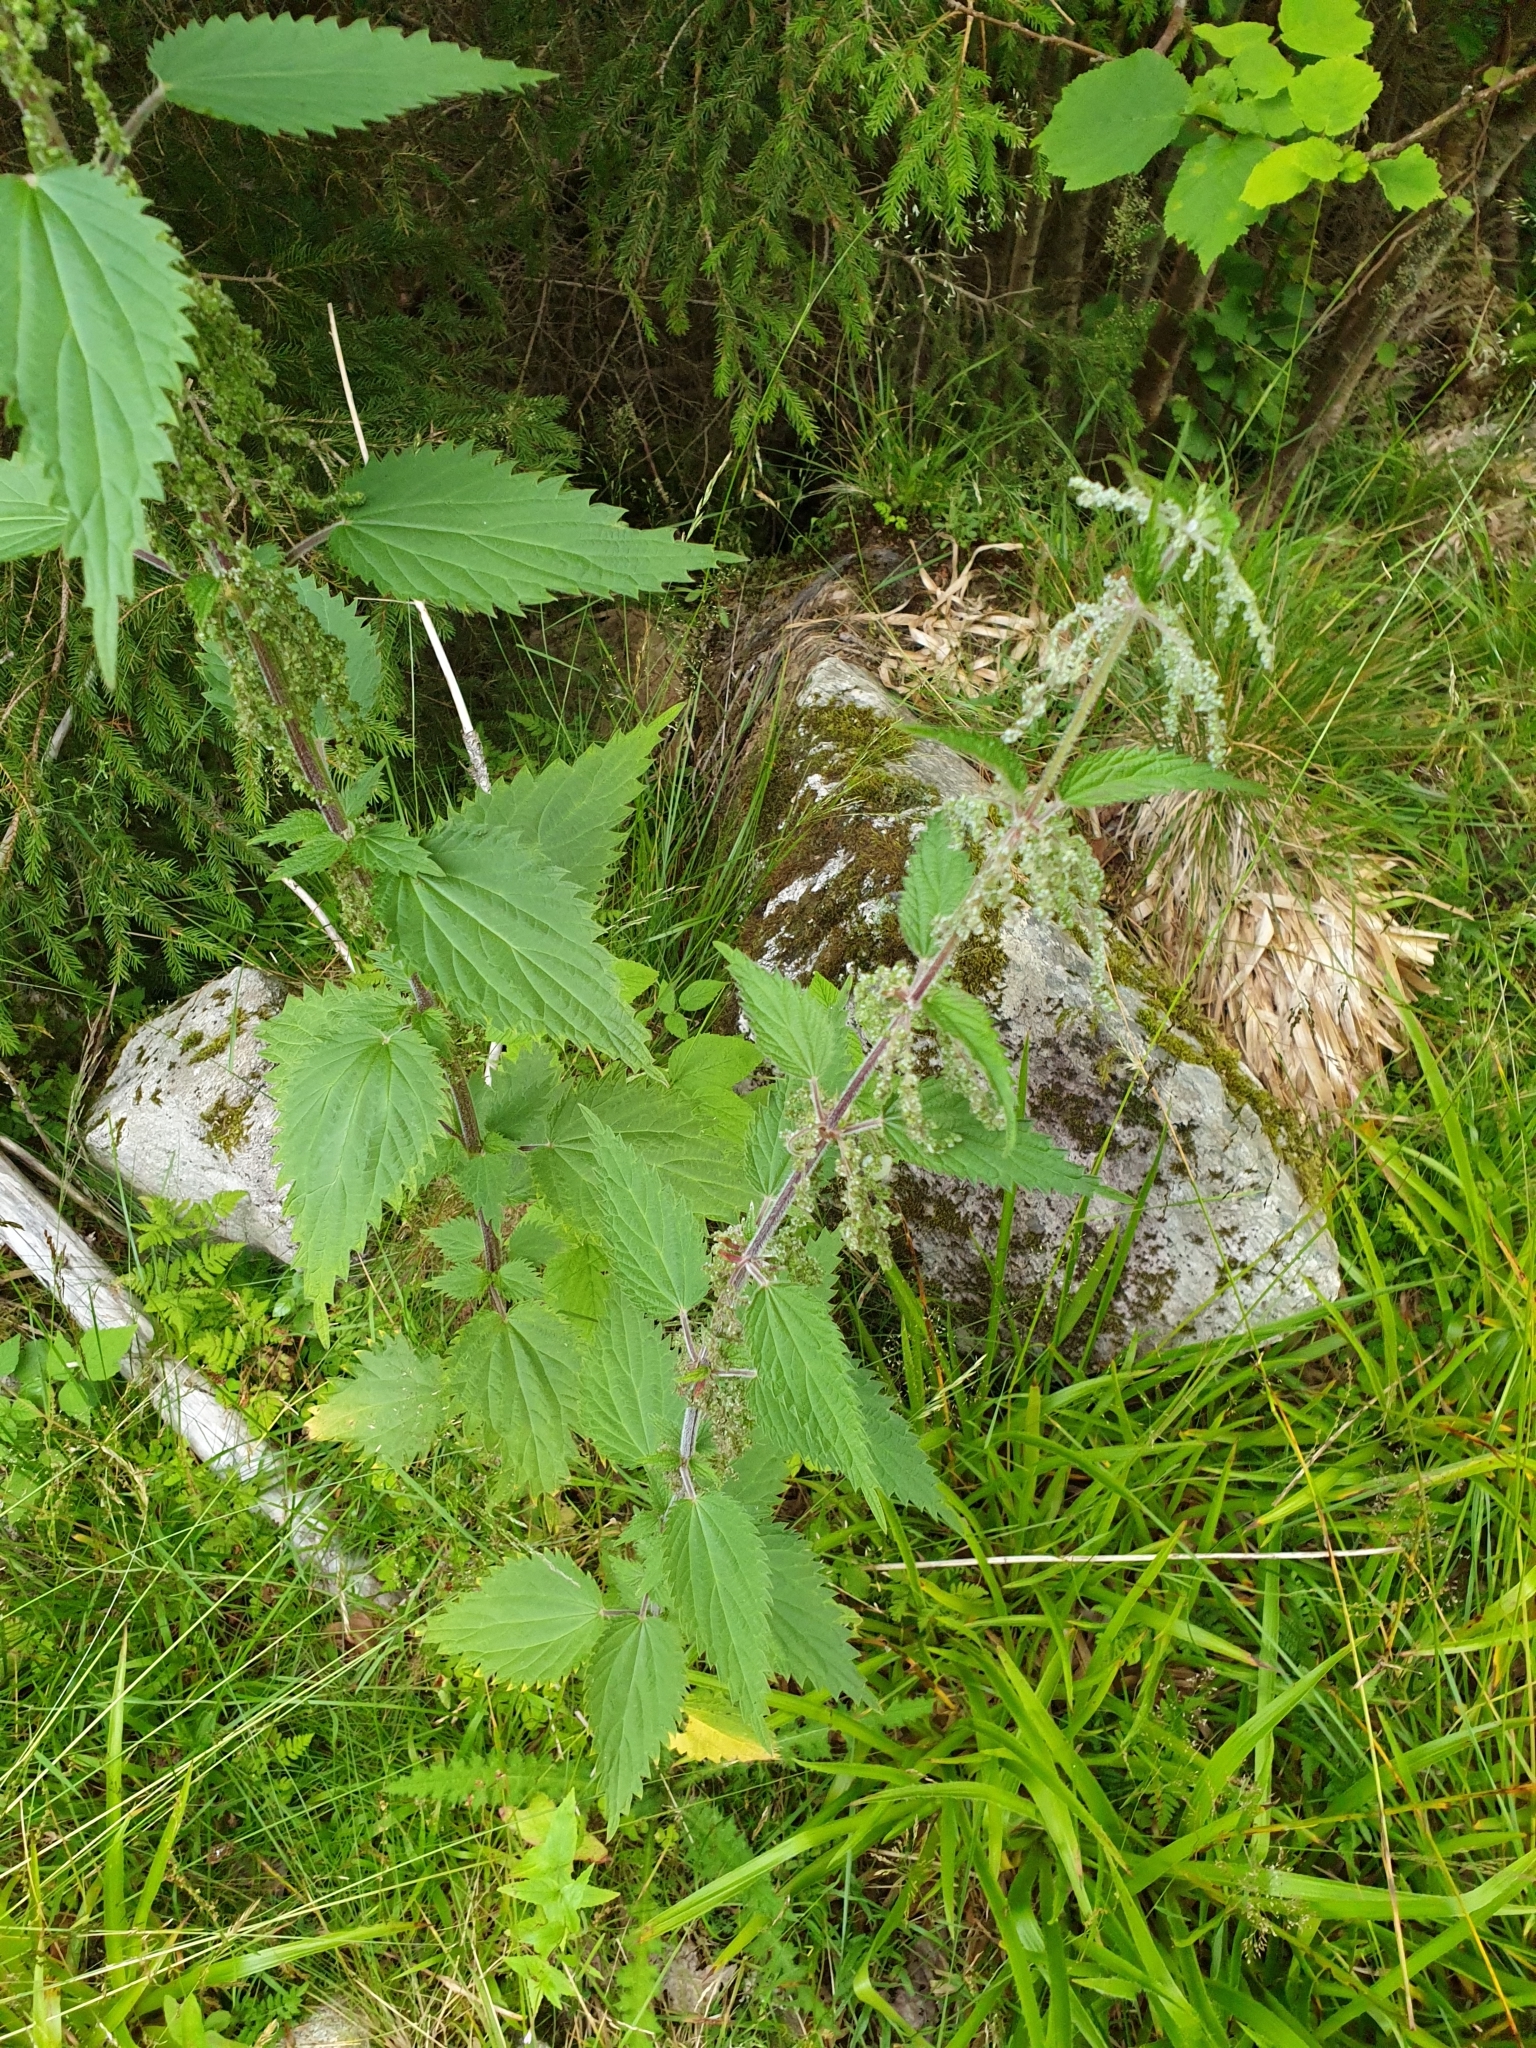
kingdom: Plantae
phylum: Tracheophyta
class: Magnoliopsida
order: Rosales
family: Urticaceae
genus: Urtica
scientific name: Urtica dioica
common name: Common nettle
